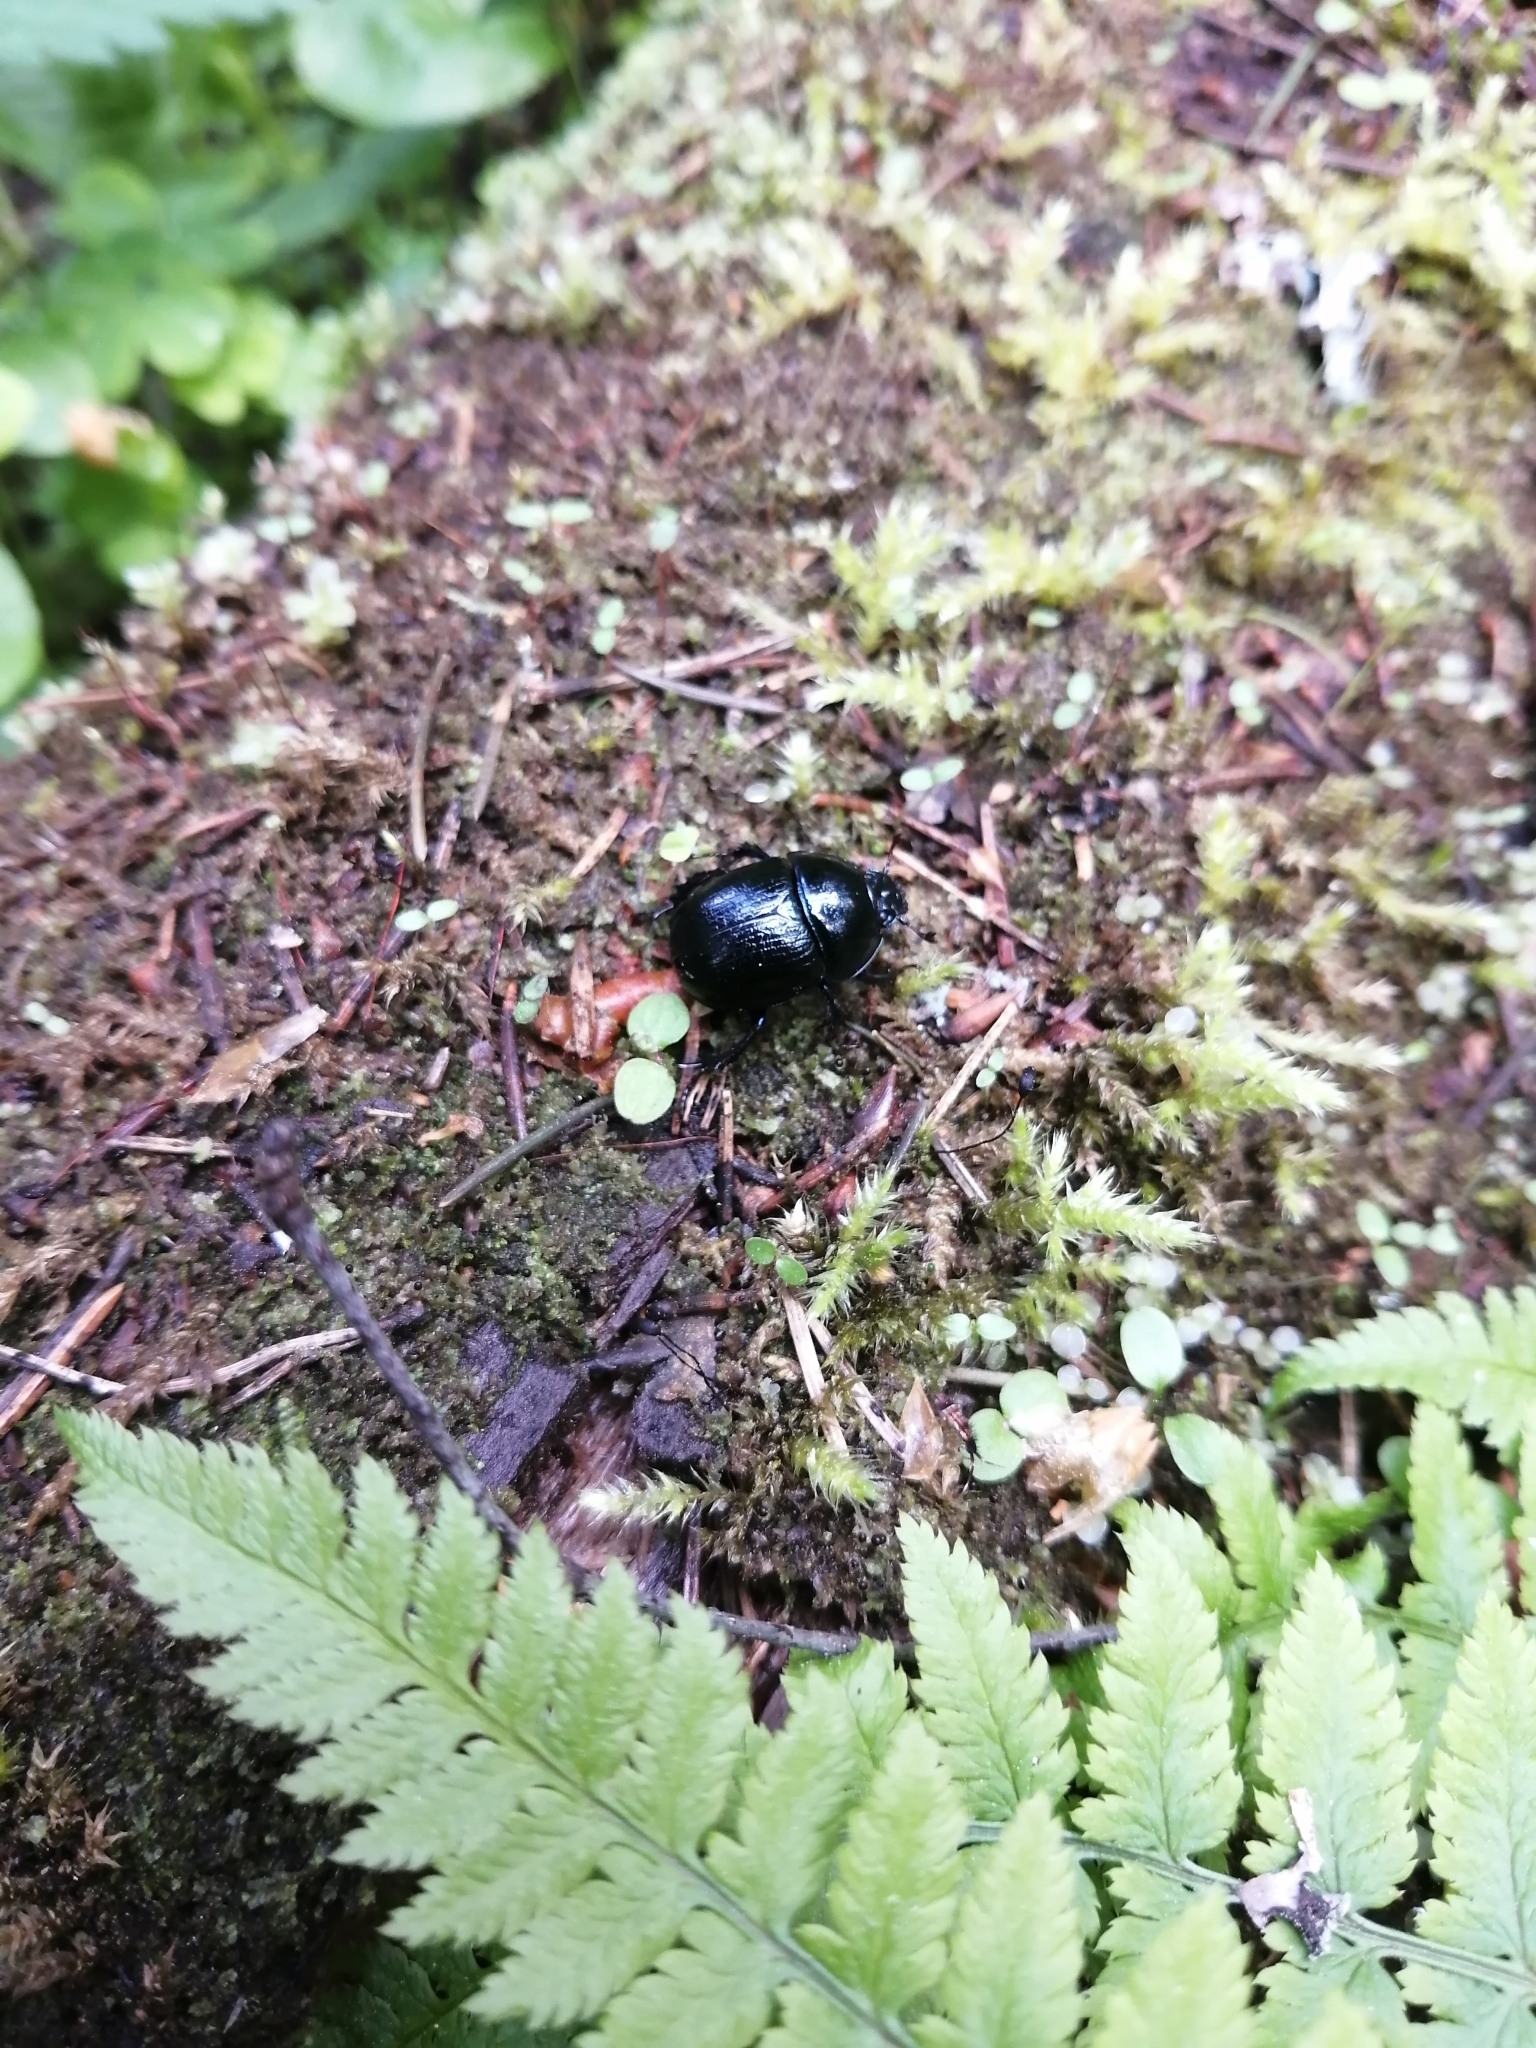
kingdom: Animalia
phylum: Arthropoda
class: Insecta
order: Coleoptera
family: Geotrupidae
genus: Anoplotrupes
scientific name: Anoplotrupes stercorosus
